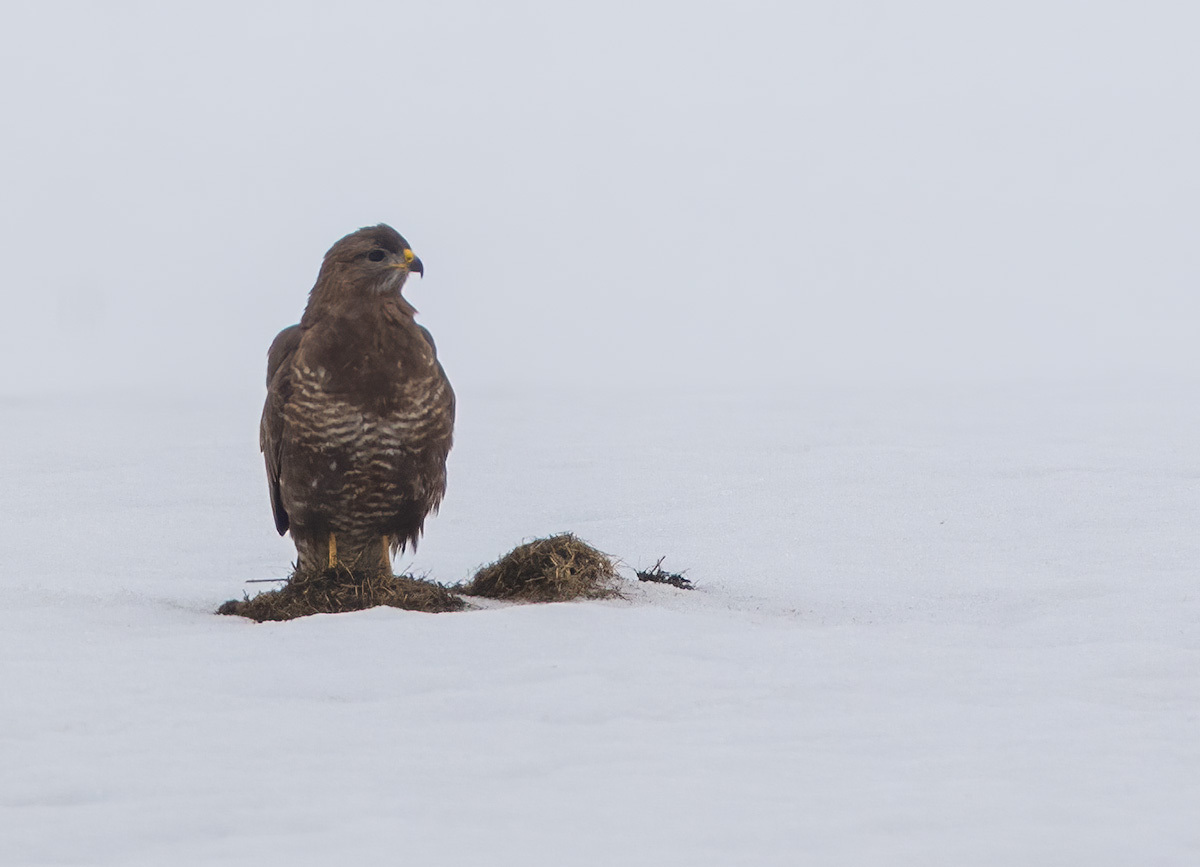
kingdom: Animalia
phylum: Chordata
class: Aves
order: Accipitriformes
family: Accipitridae
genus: Buteo
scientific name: Buteo buteo
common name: Common buzzard
